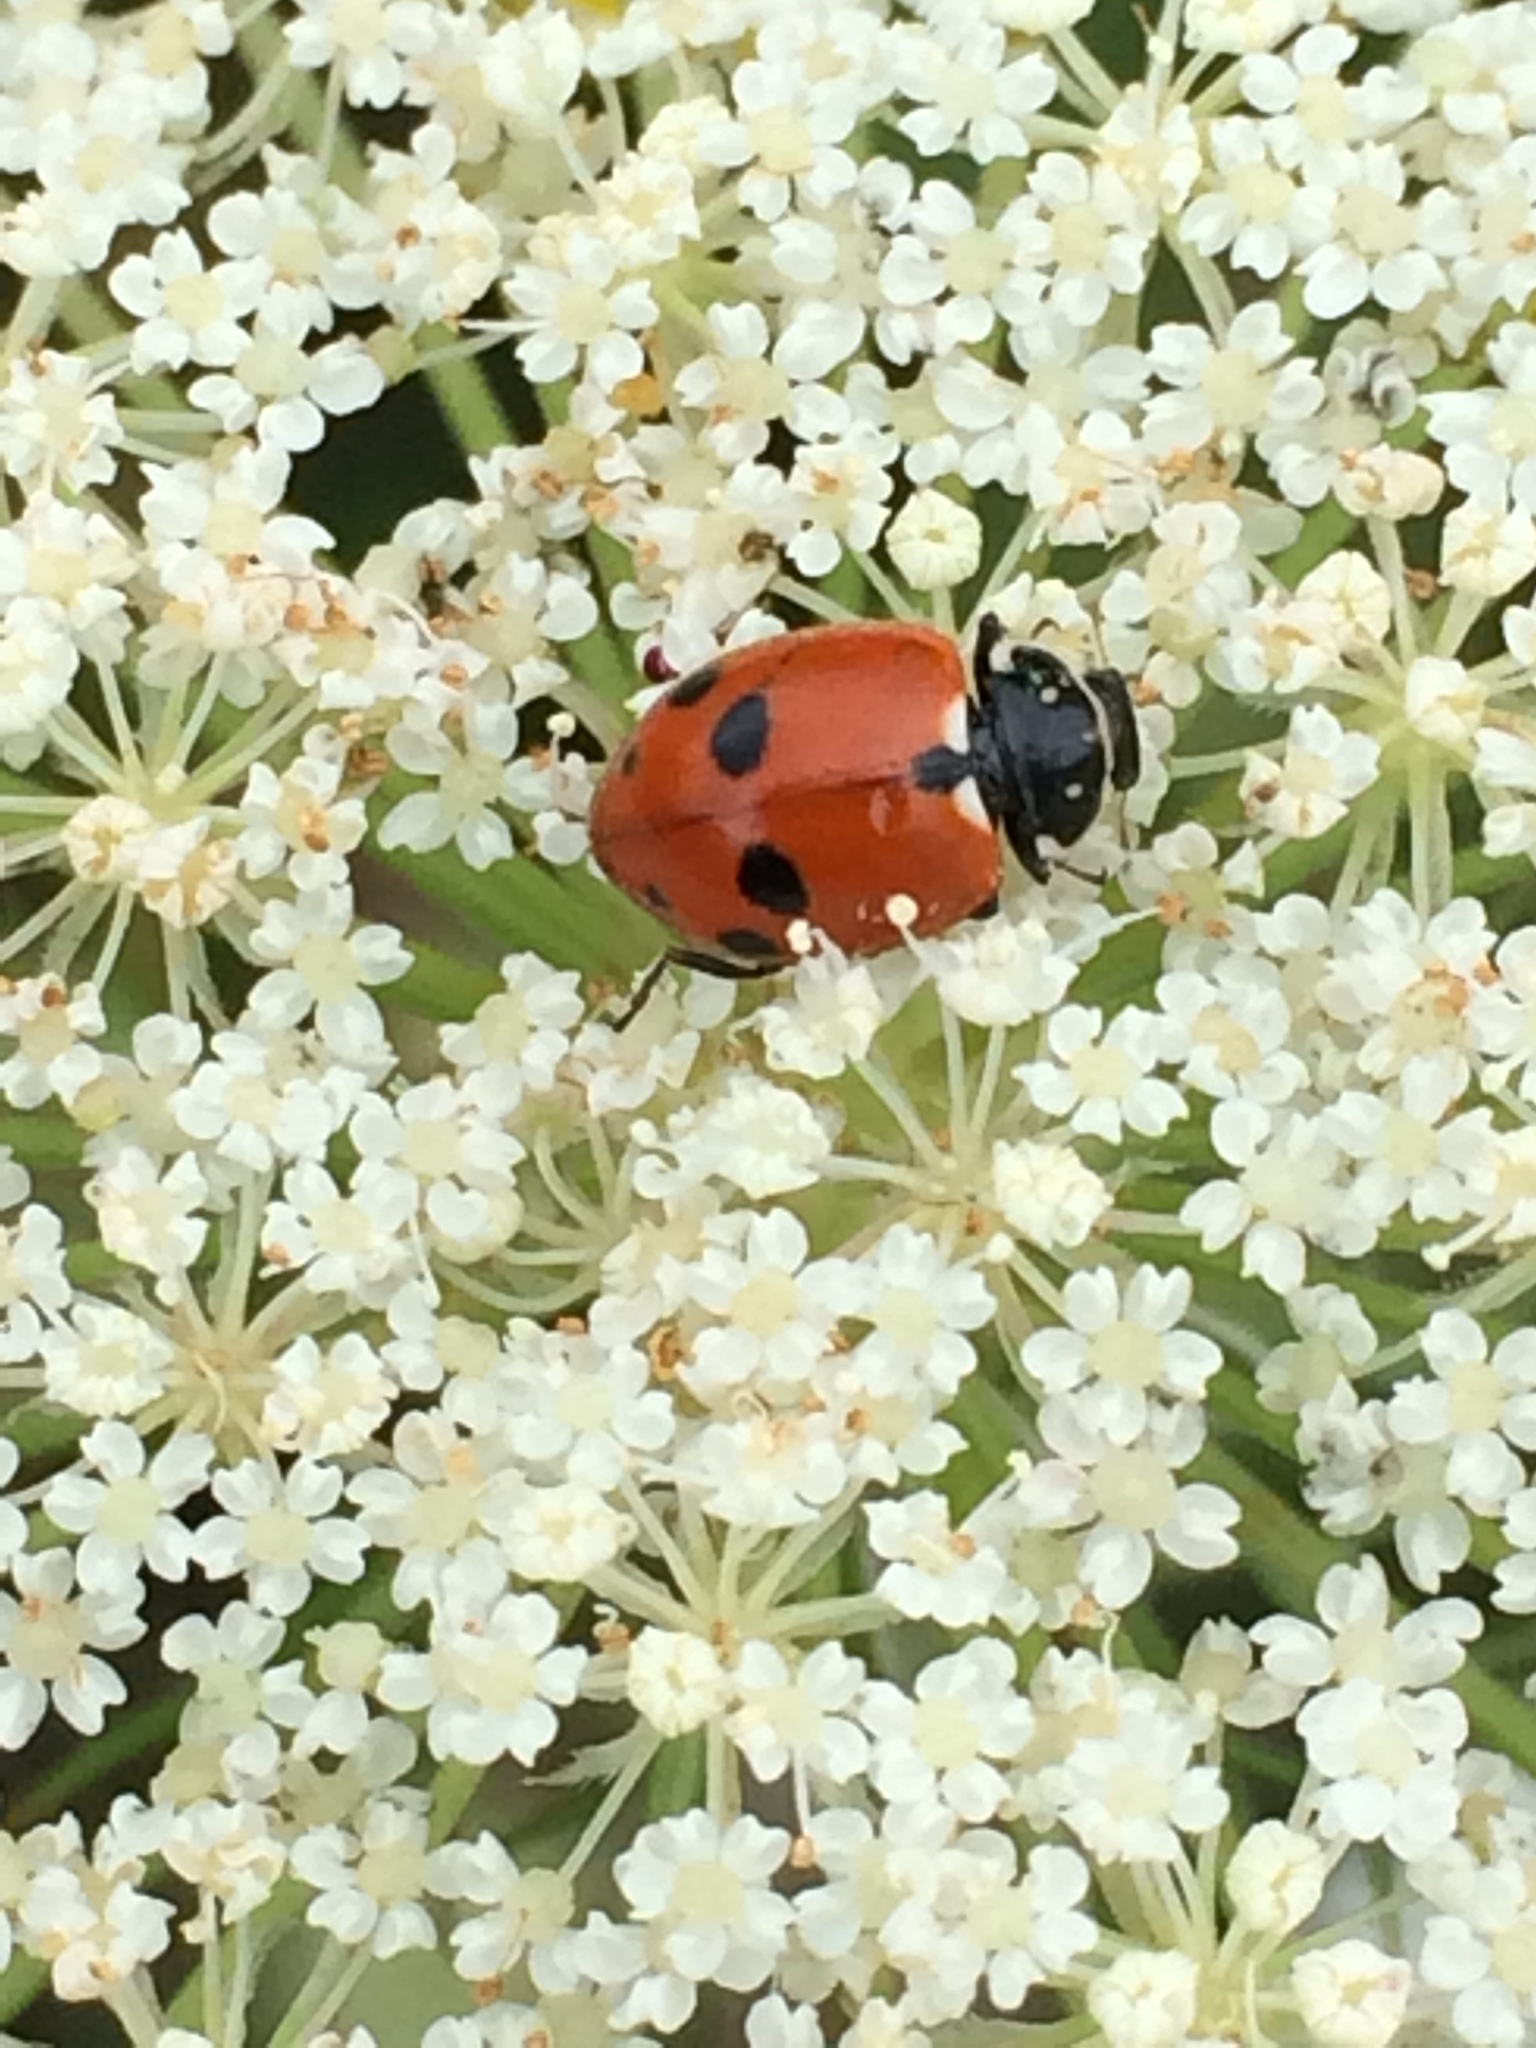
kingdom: Animalia
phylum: Arthropoda
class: Insecta
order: Coleoptera
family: Coccinellidae
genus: Hippodamia
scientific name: Hippodamia variegata
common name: Ladybird beetle
